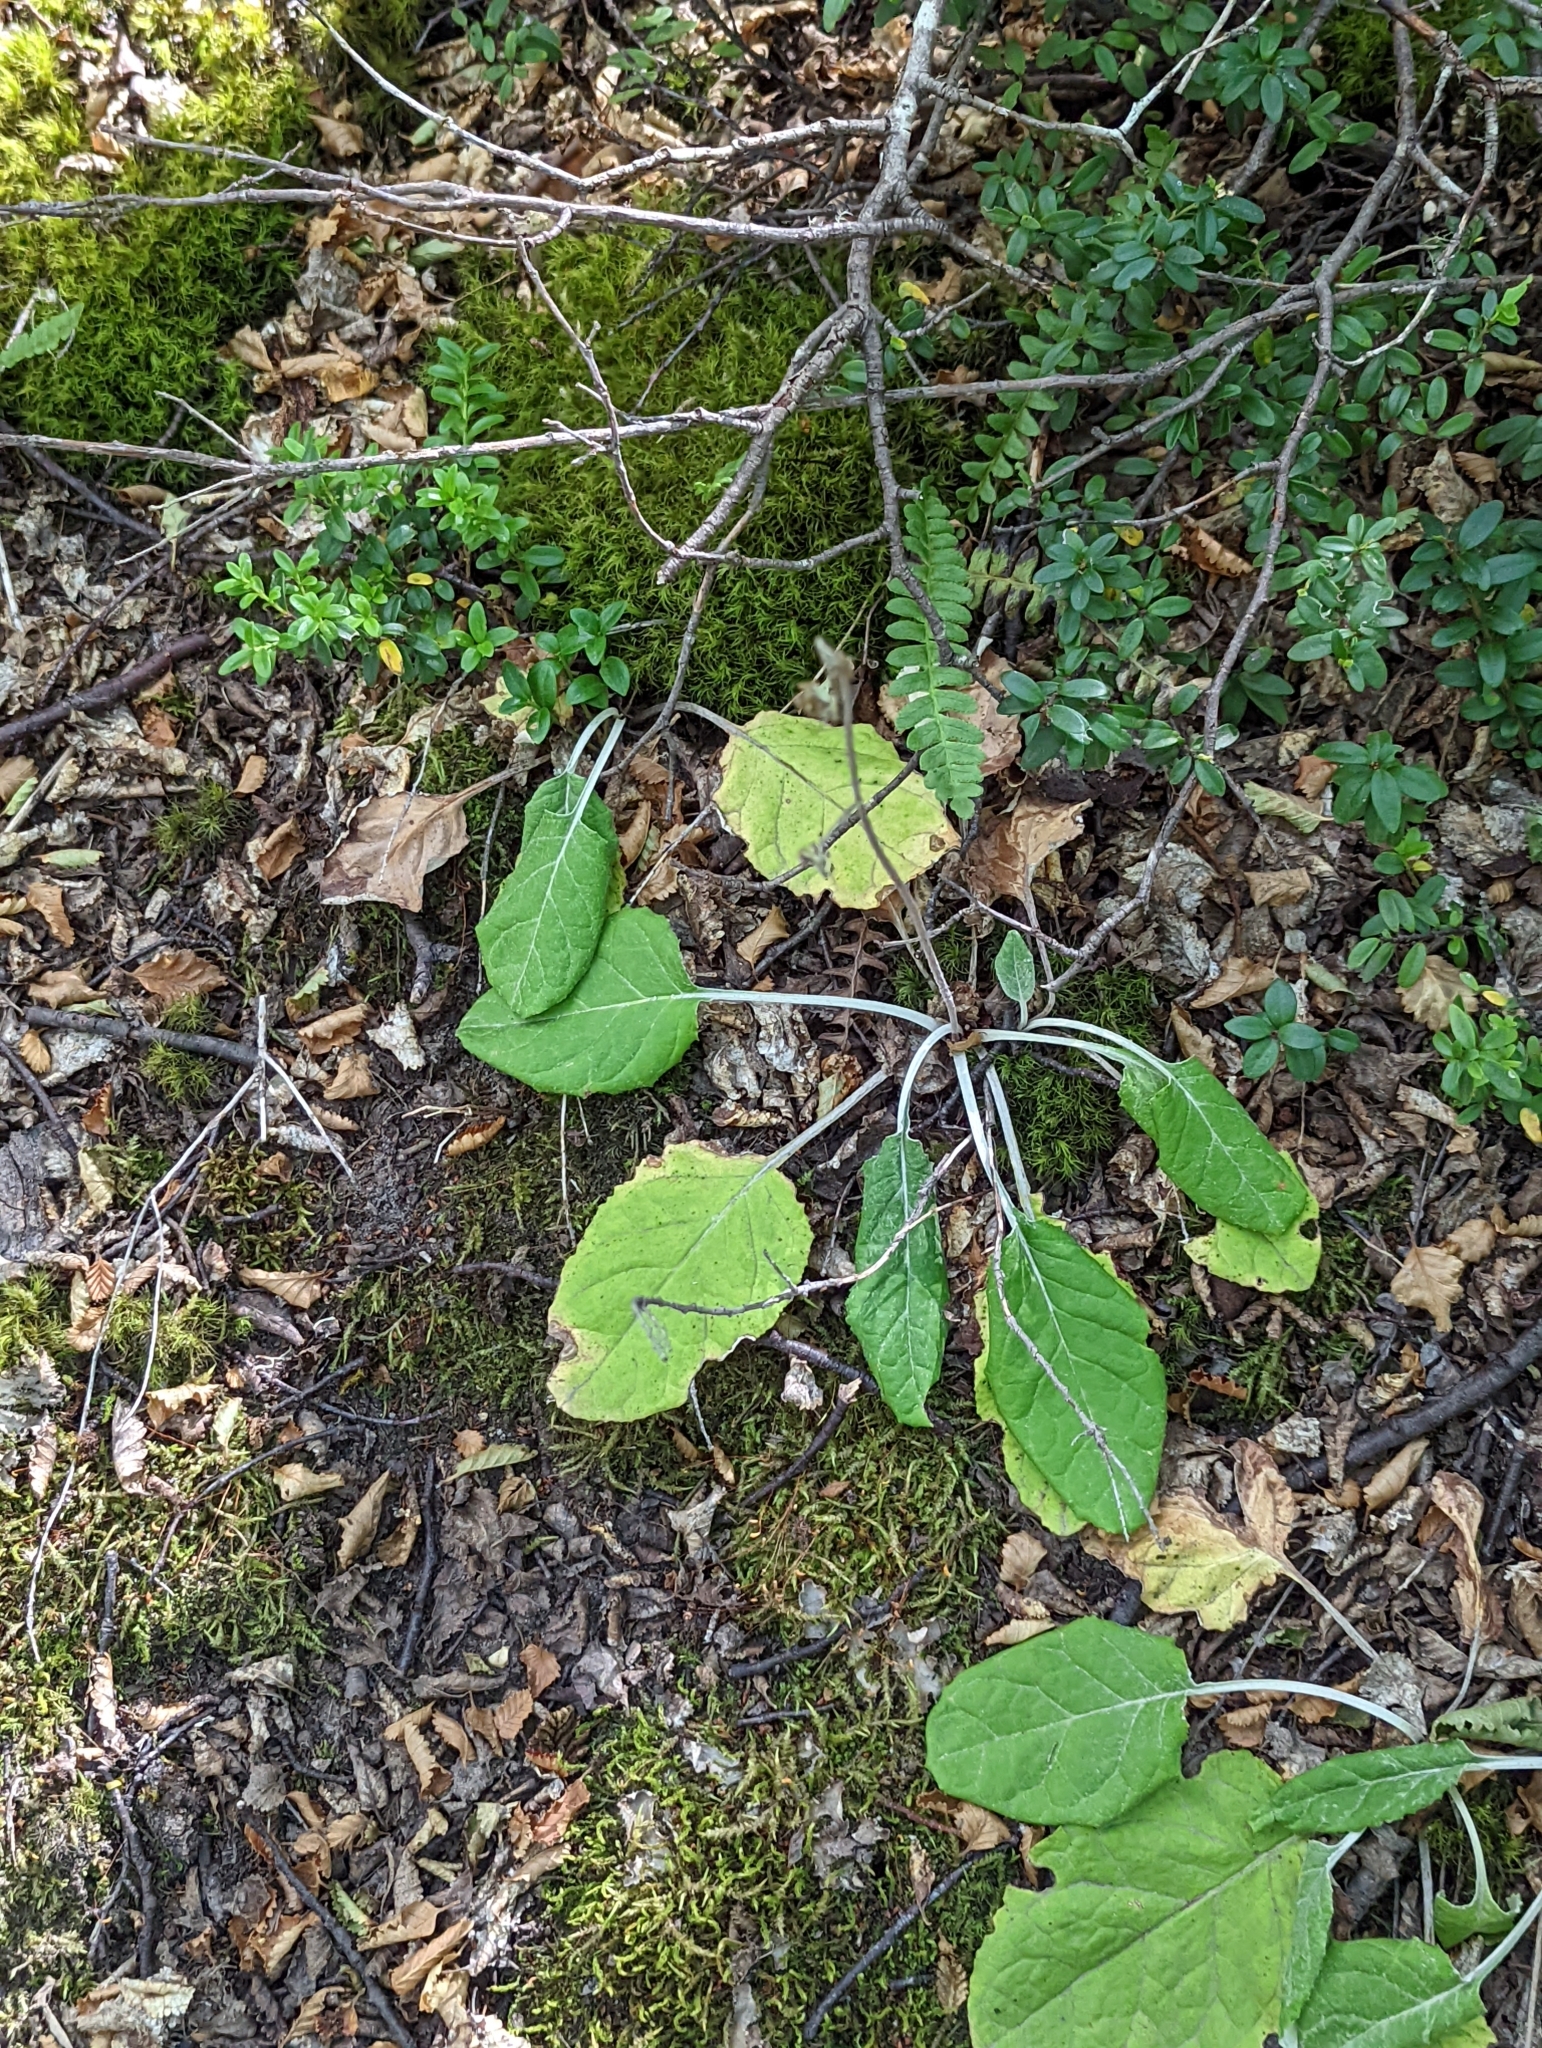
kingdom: Plantae
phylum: Tracheophyta
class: Magnoliopsida
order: Asterales
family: Asteraceae
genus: Adenocaulon
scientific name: Adenocaulon chilense
